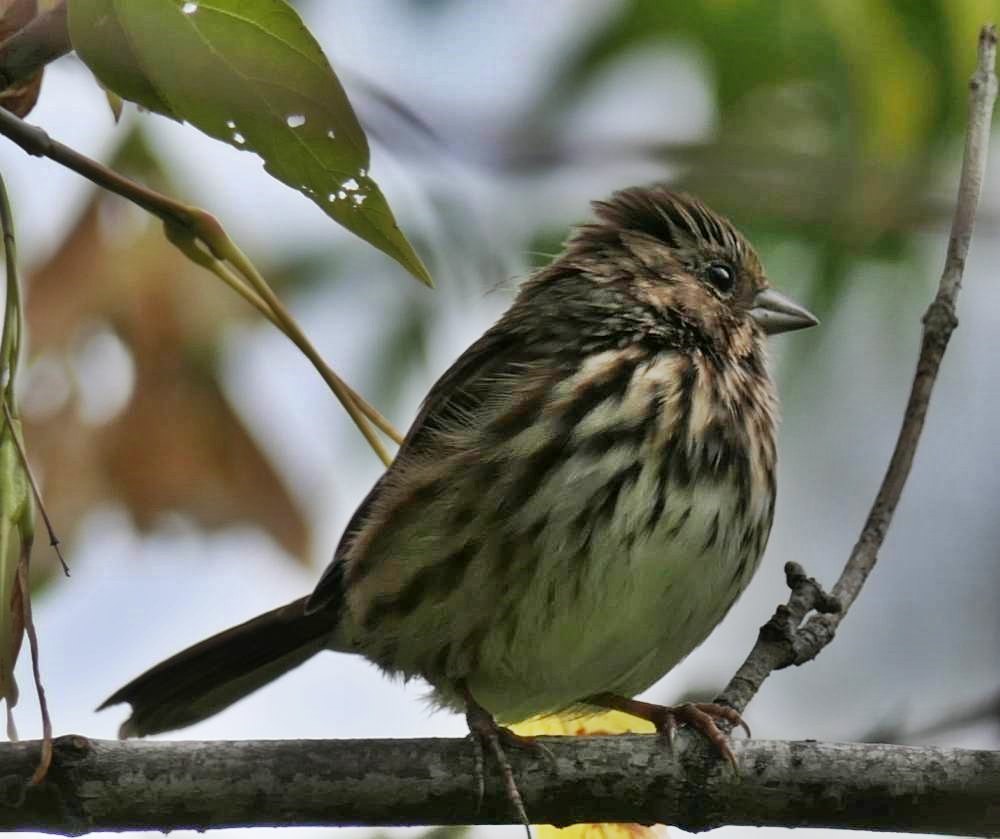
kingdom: Animalia
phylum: Chordata
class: Aves
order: Passeriformes
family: Passerellidae
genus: Melospiza
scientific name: Melospiza melodia
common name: Song sparrow
